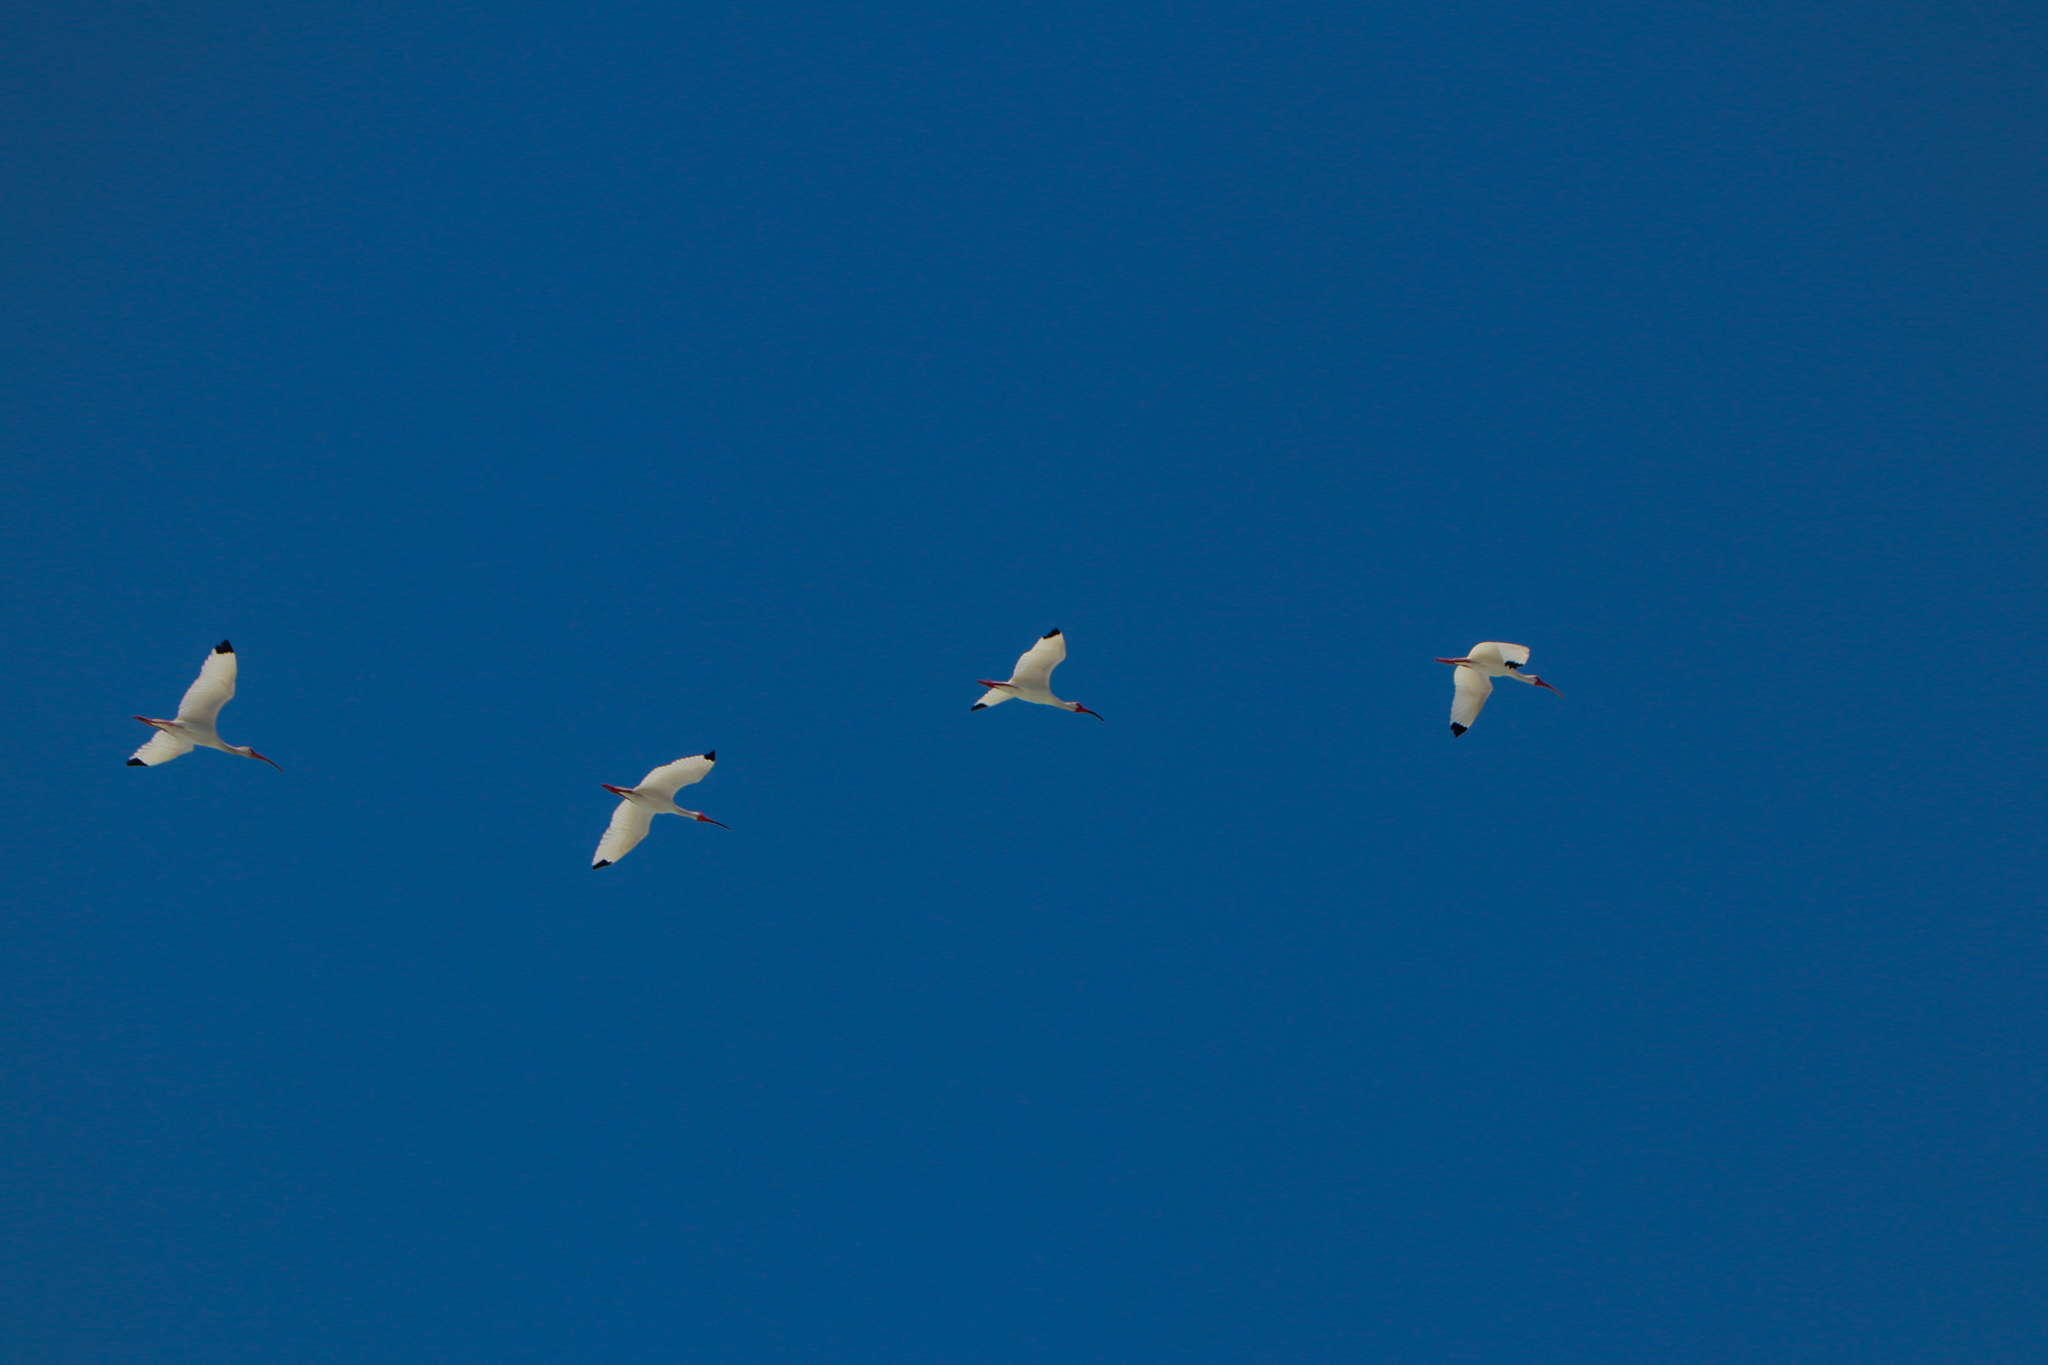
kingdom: Animalia
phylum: Chordata
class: Aves
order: Pelecaniformes
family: Threskiornithidae
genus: Eudocimus
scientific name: Eudocimus albus
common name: White ibis
